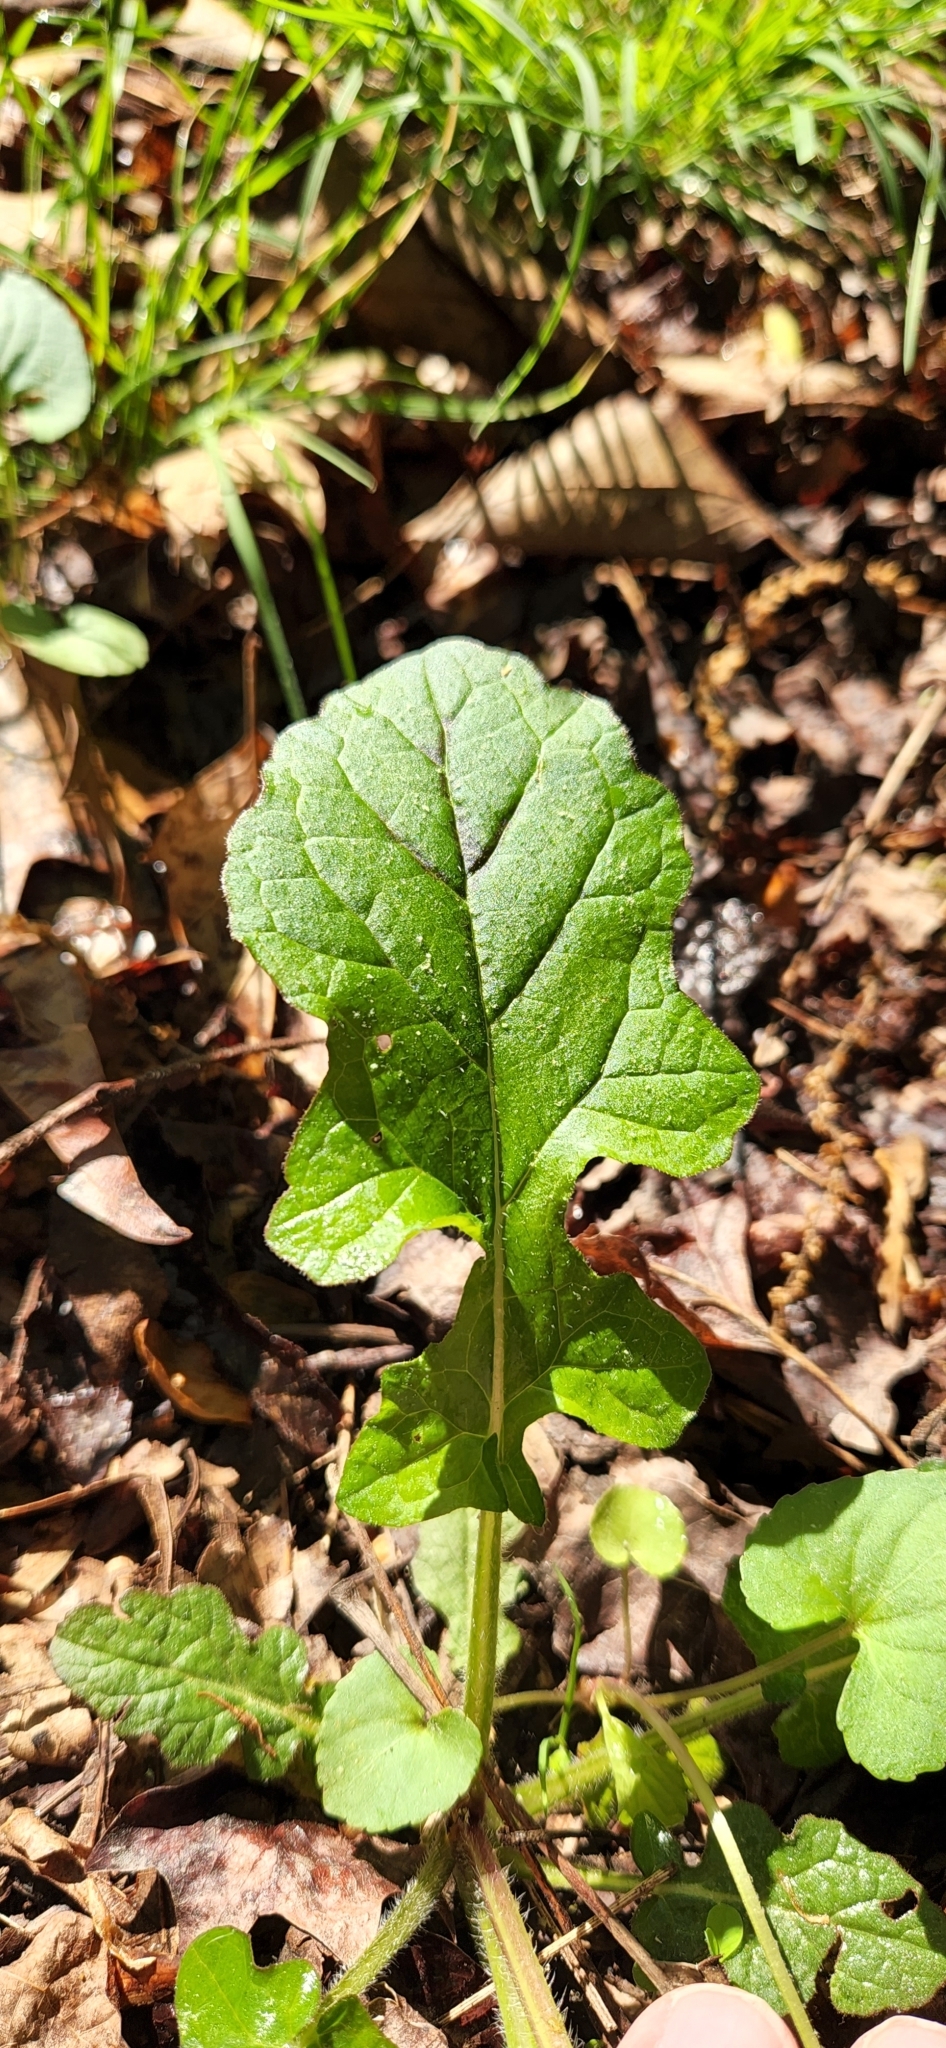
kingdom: Plantae
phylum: Tracheophyta
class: Magnoliopsida
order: Lamiales
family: Lamiaceae
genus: Salvia
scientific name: Salvia lyrata
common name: Cancerweed
